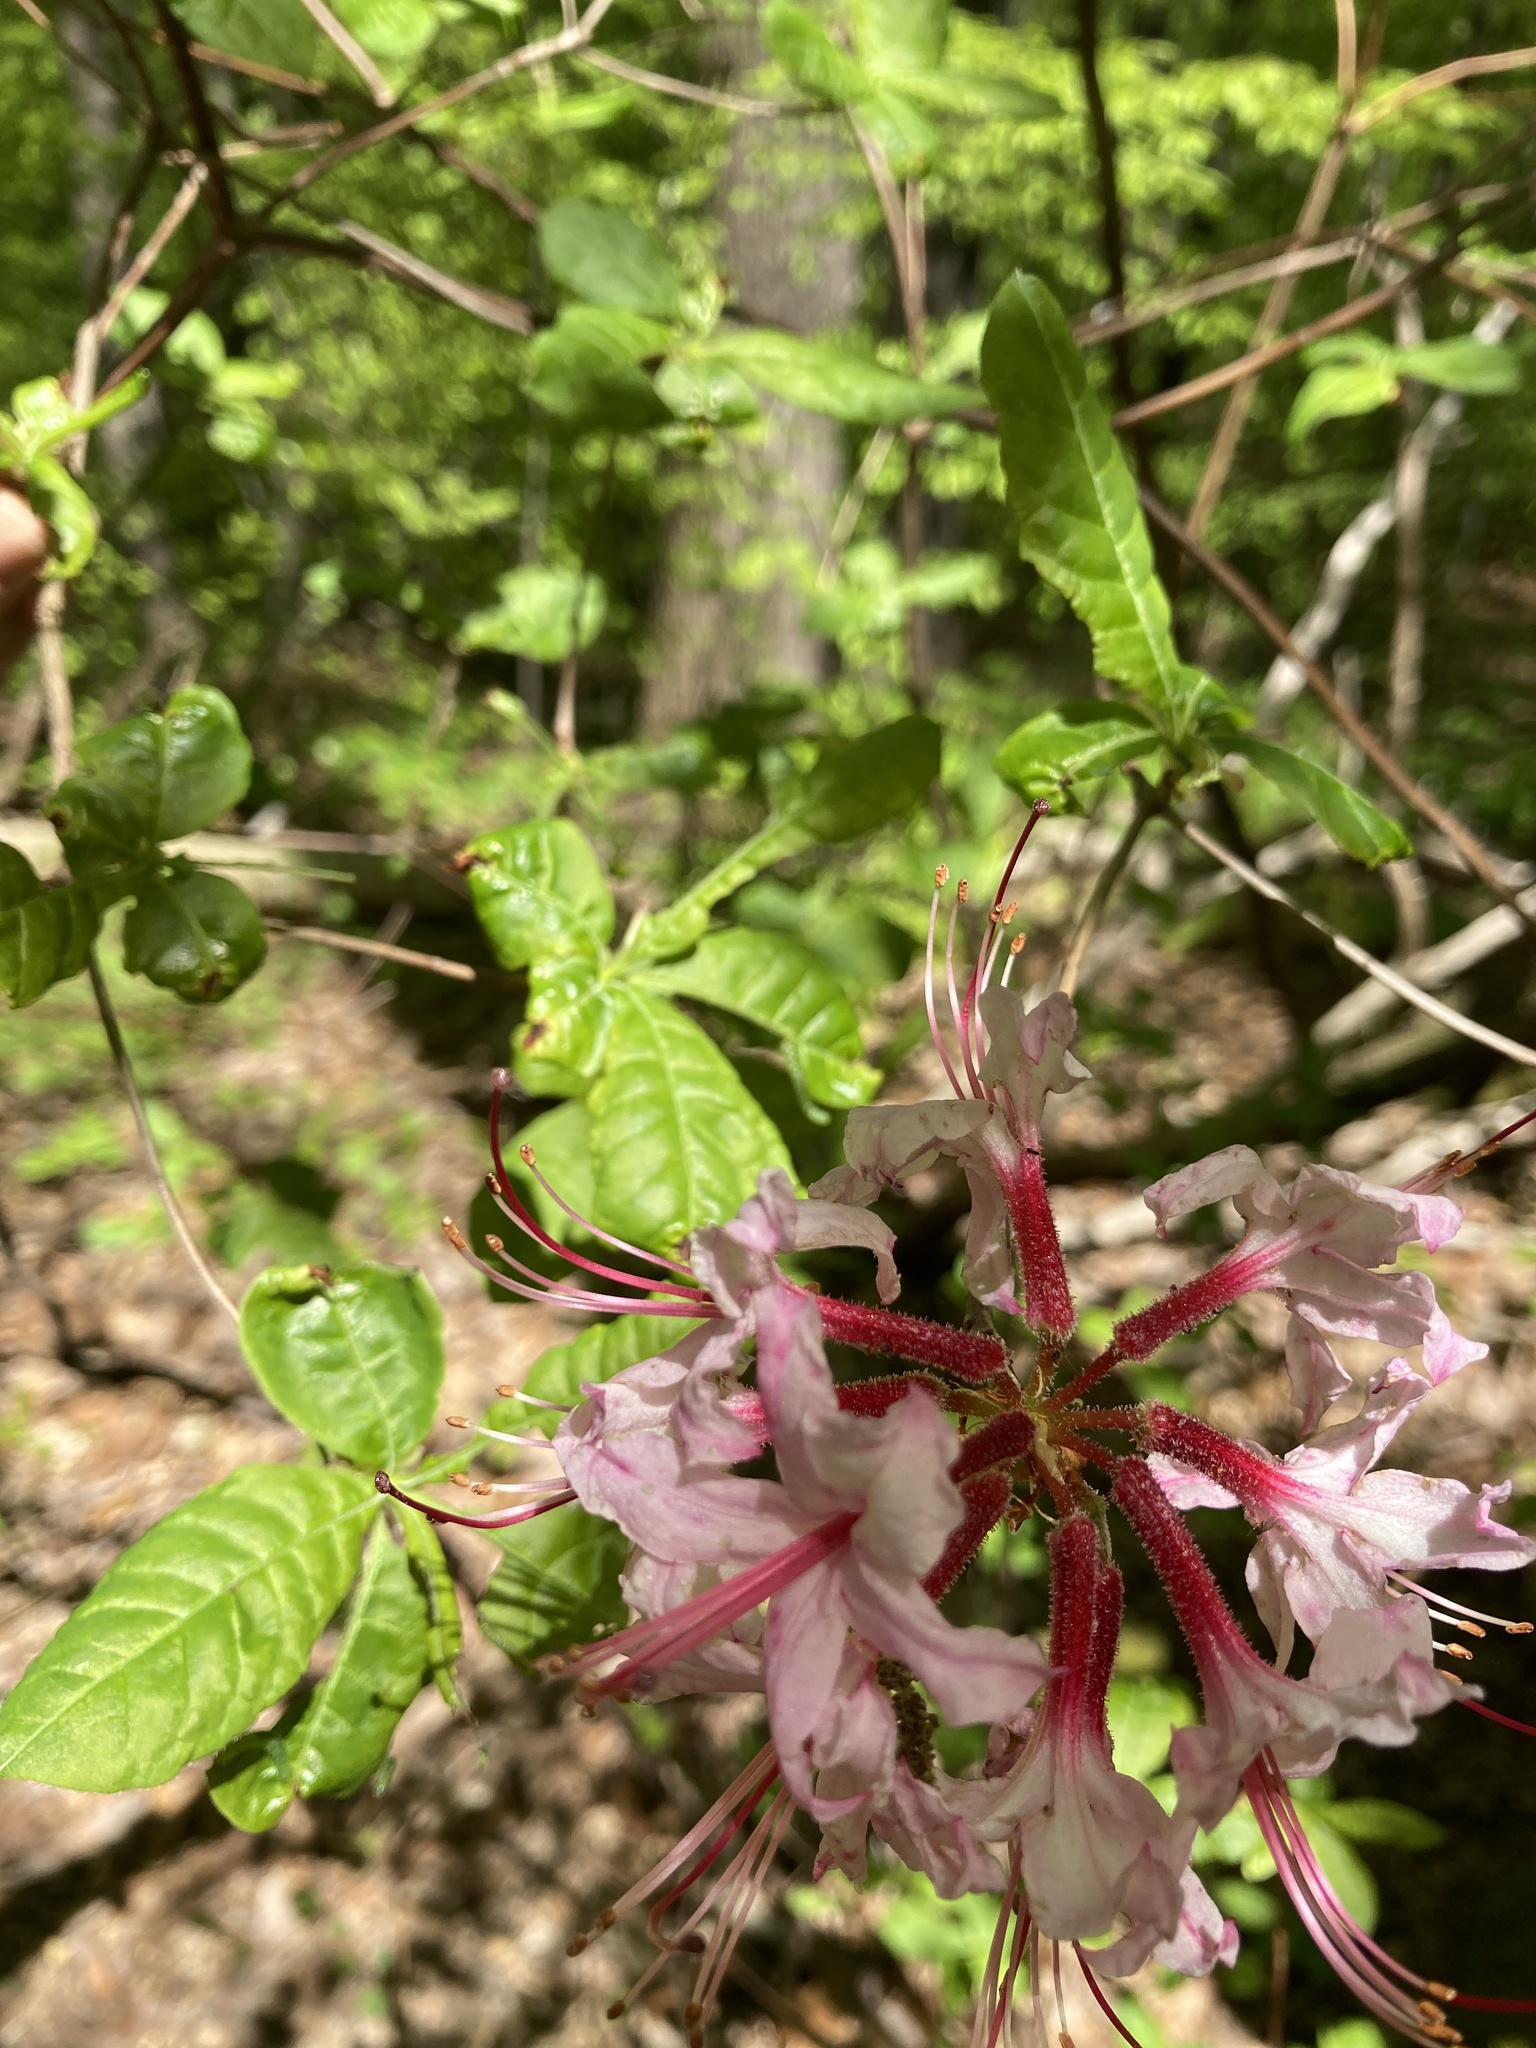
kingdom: Plantae
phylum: Tracheophyta
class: Magnoliopsida
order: Ericales
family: Ericaceae
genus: Rhododendron
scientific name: Rhododendron periclymenoides
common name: Election-pink
